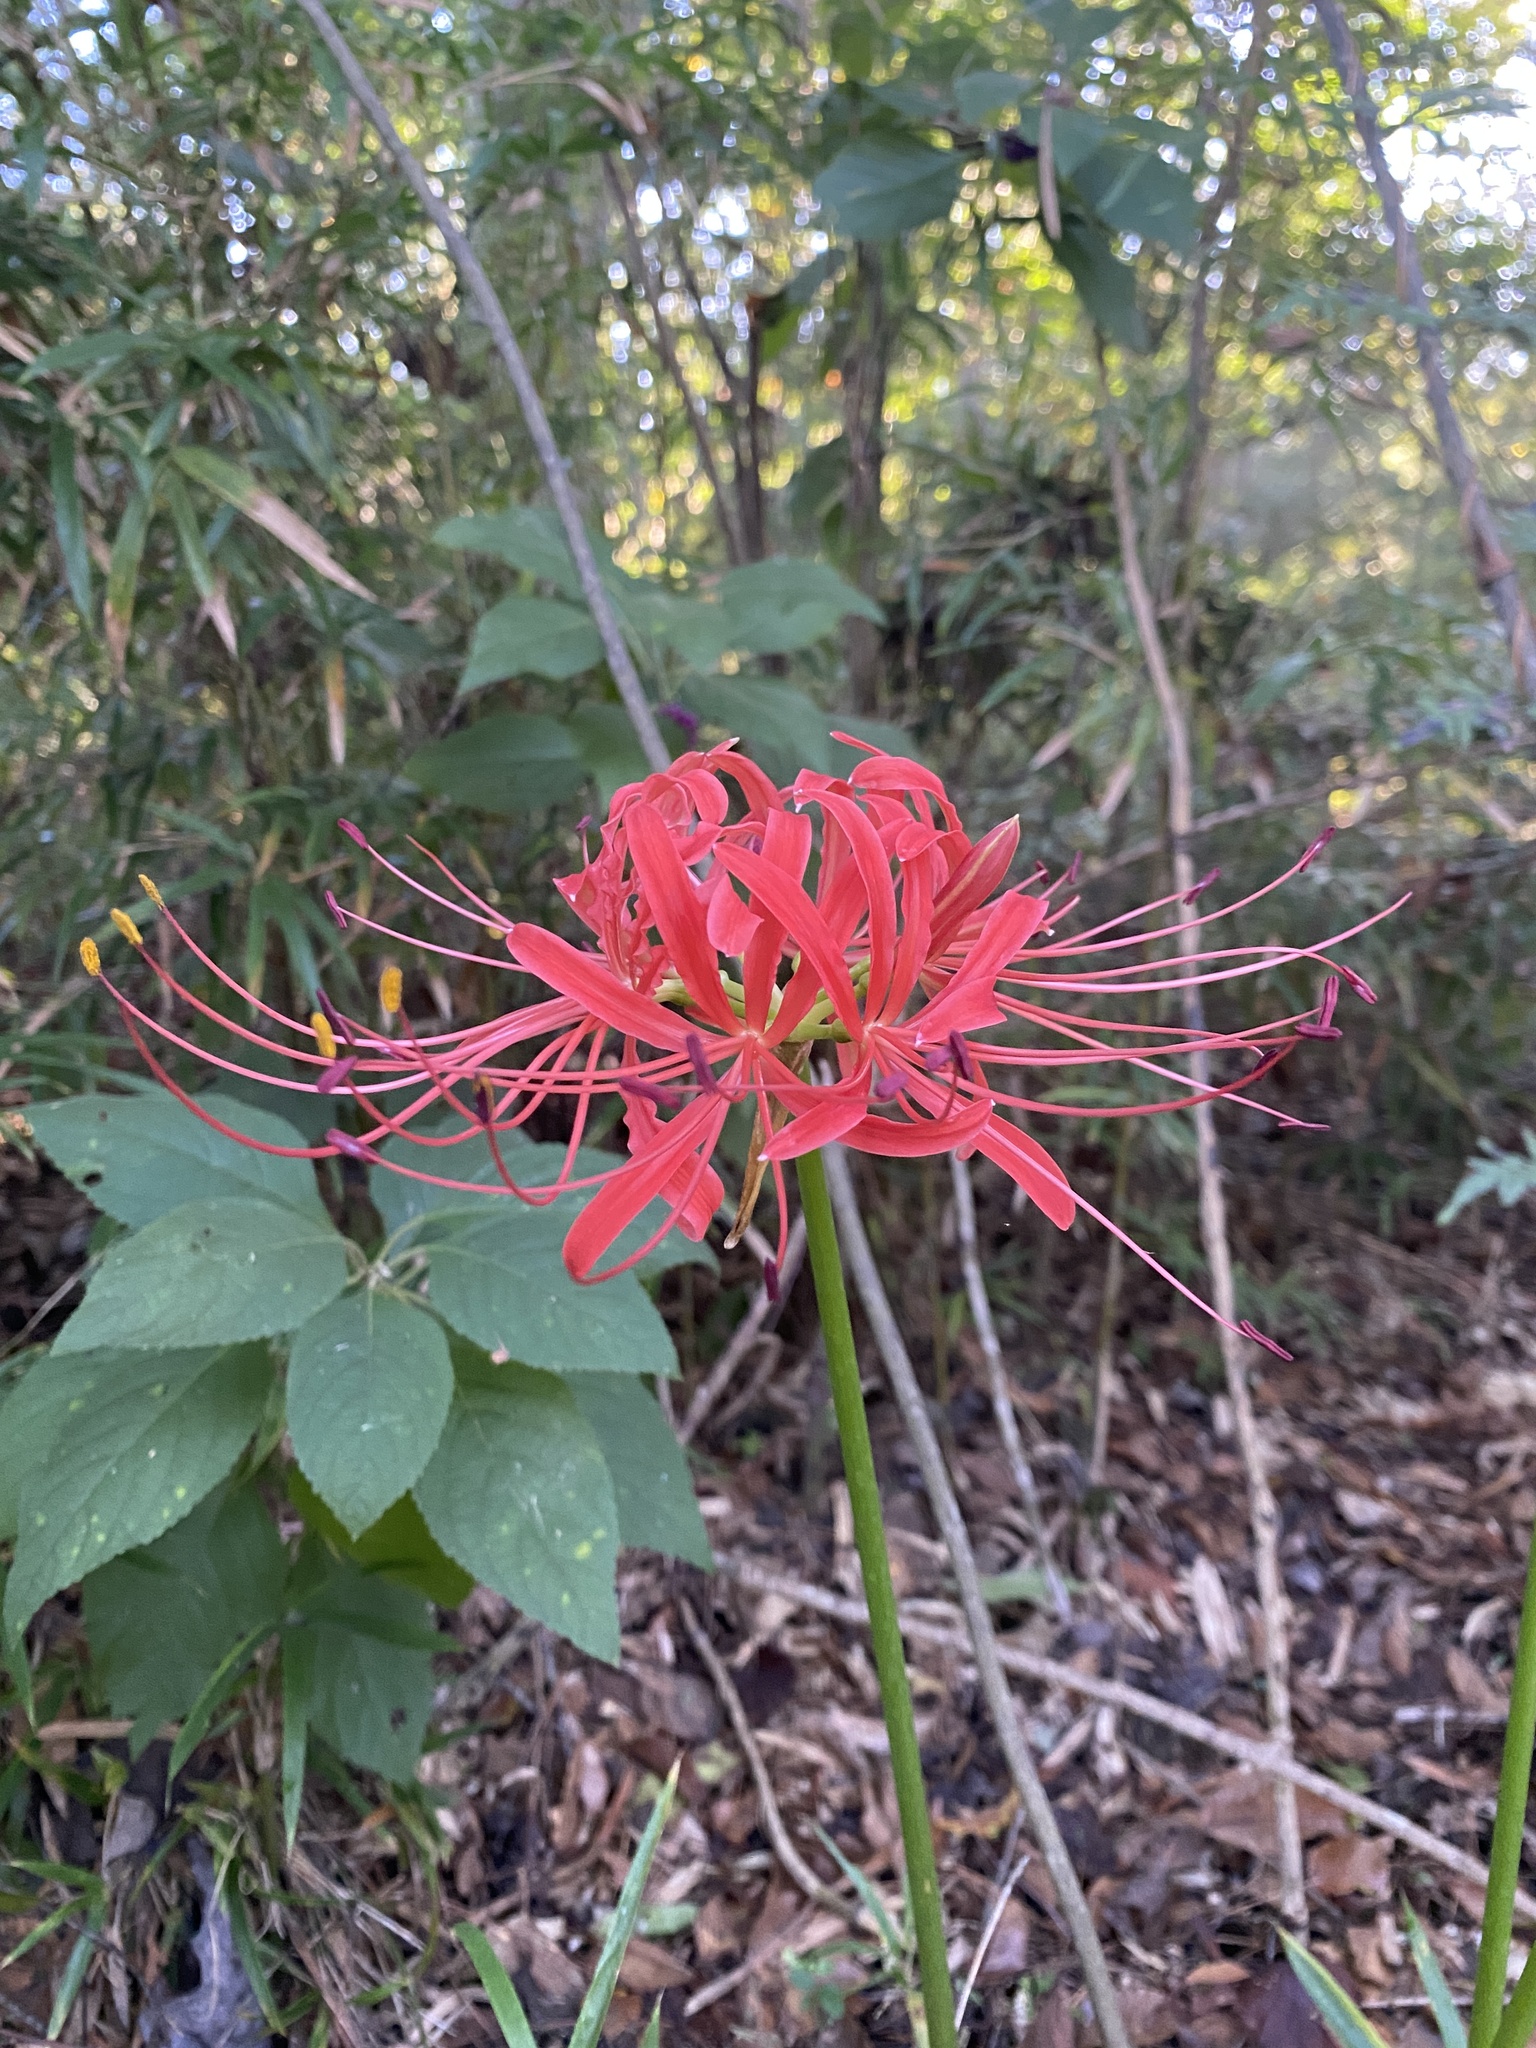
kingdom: Plantae
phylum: Tracheophyta
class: Liliopsida
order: Asparagales
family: Amaryllidaceae
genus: Lycoris
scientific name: Lycoris radiata
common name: Red spider lily
